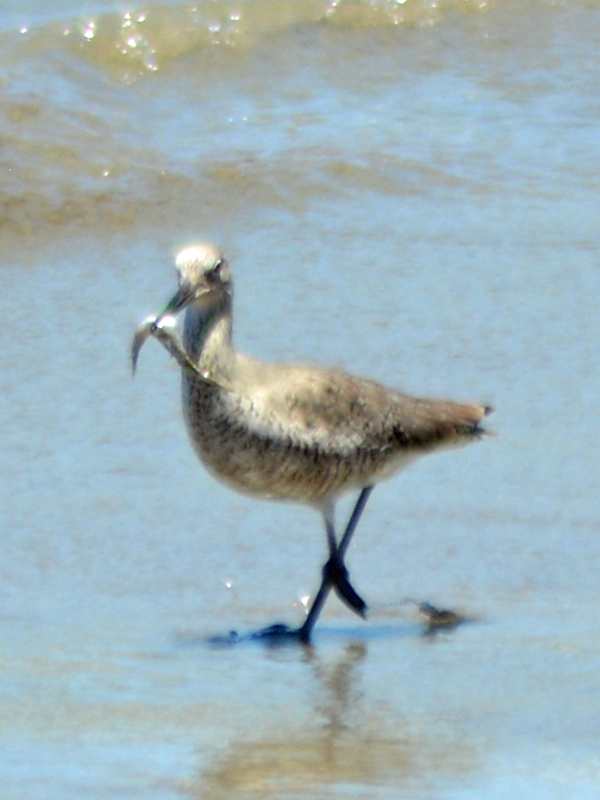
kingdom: Animalia
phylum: Chordata
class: Aves
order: Charadriiformes
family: Scolopacidae
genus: Tringa
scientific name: Tringa semipalmata
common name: Willet
